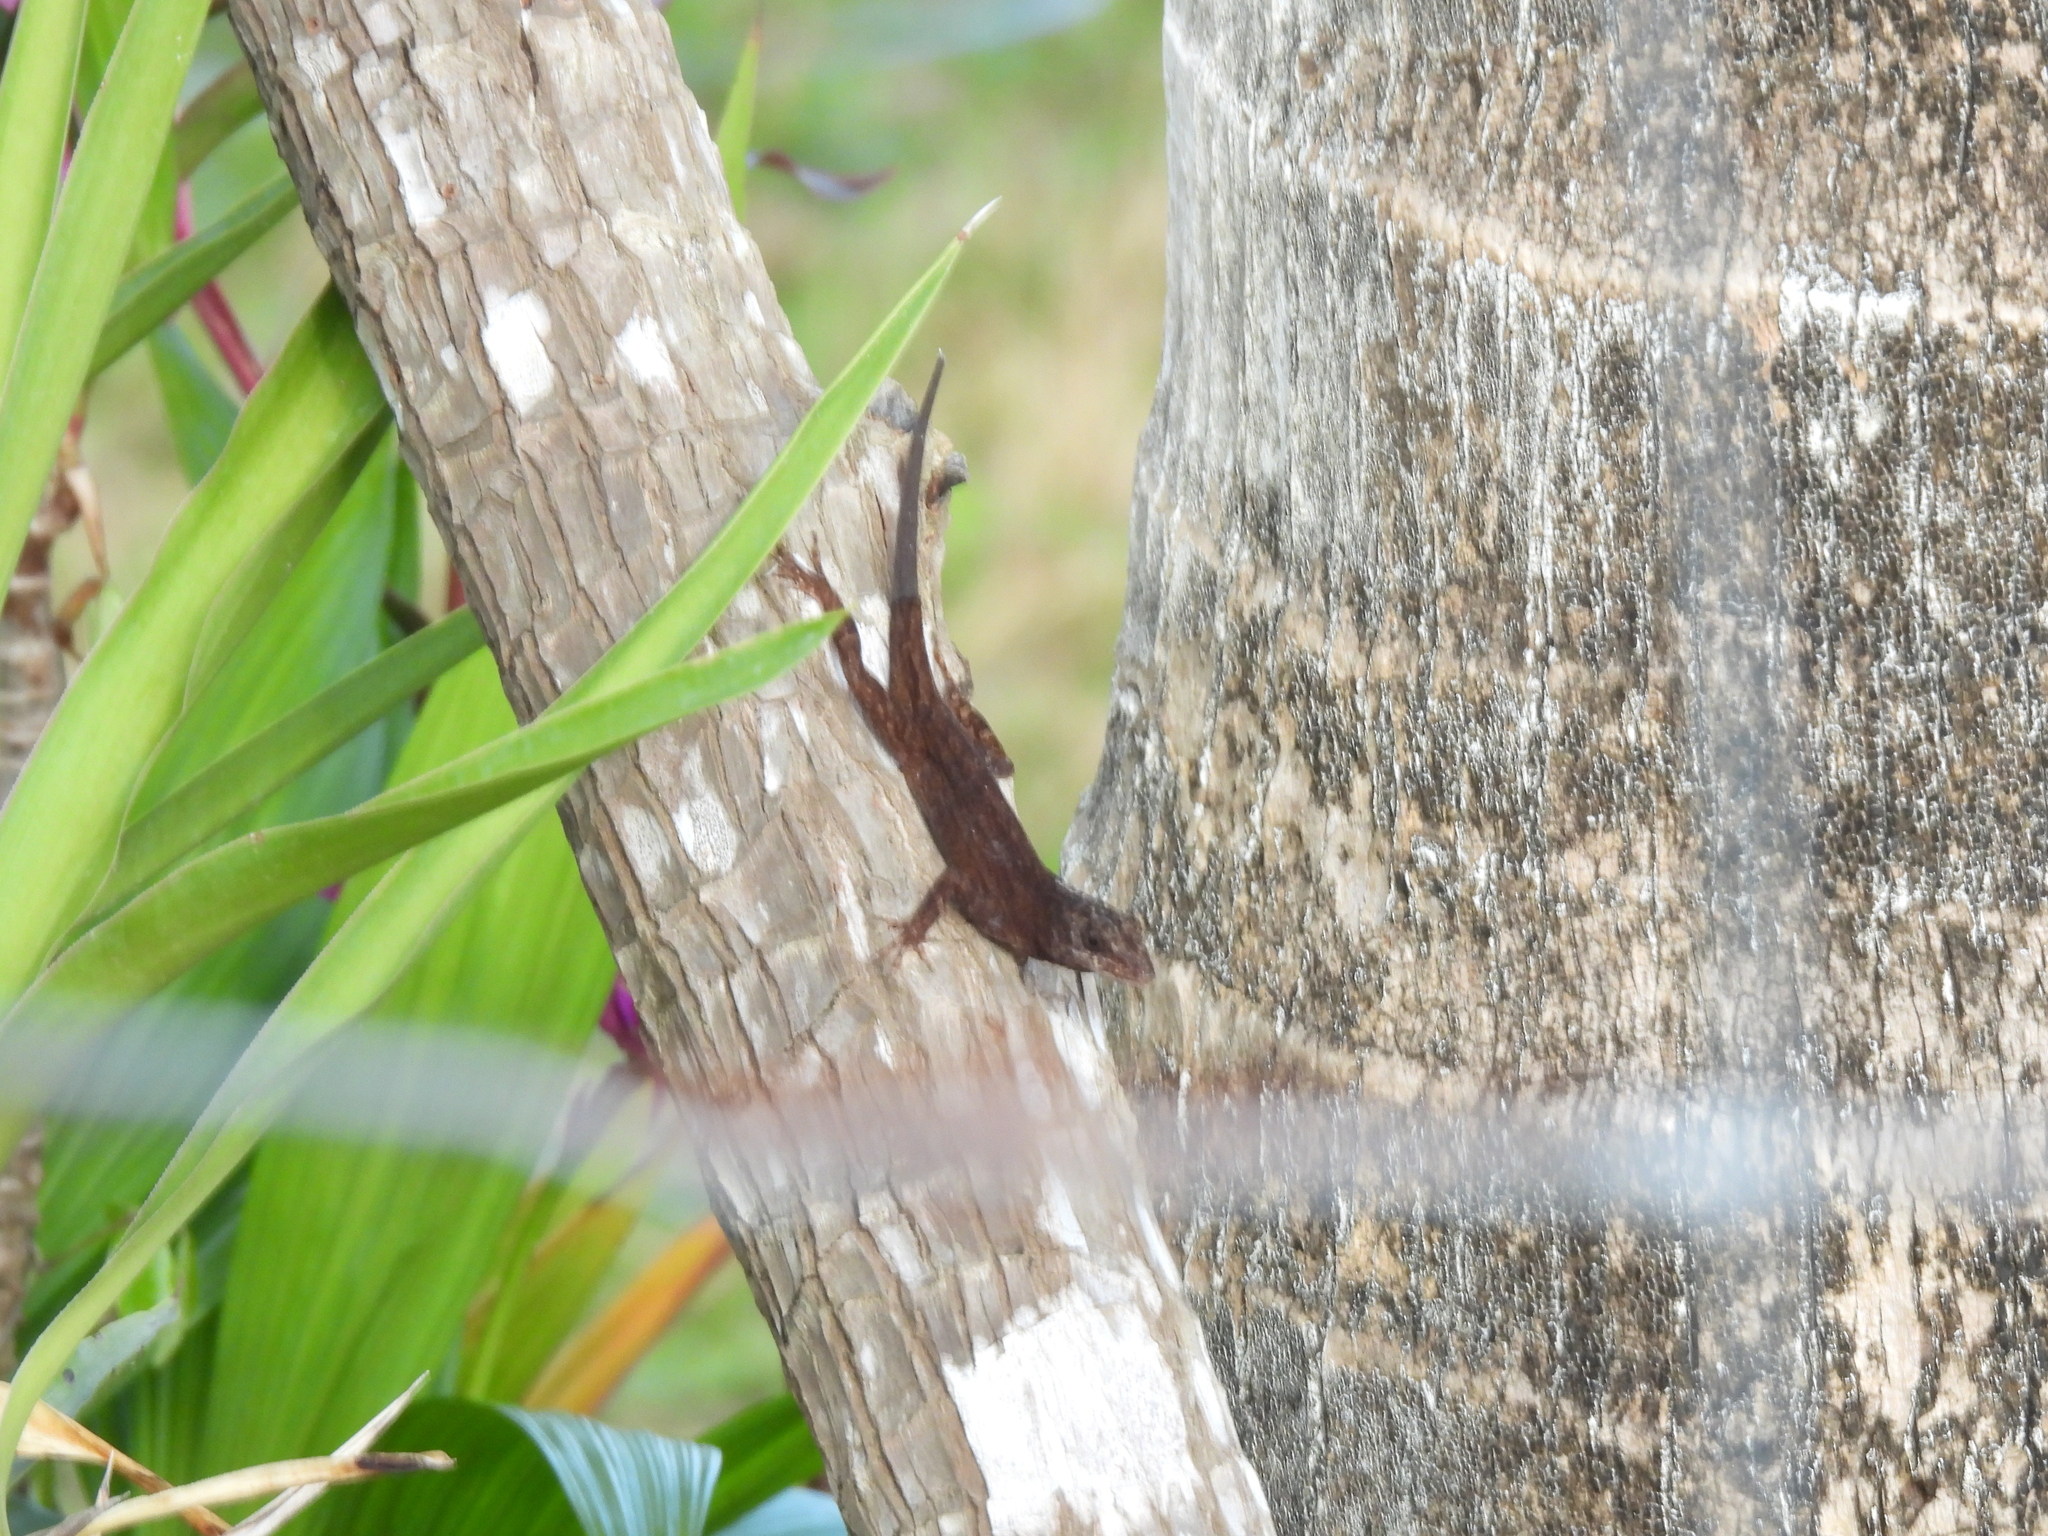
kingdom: Animalia
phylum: Chordata
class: Squamata
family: Dactyloidae
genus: Anolis
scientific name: Anolis sagrei
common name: Brown anole
